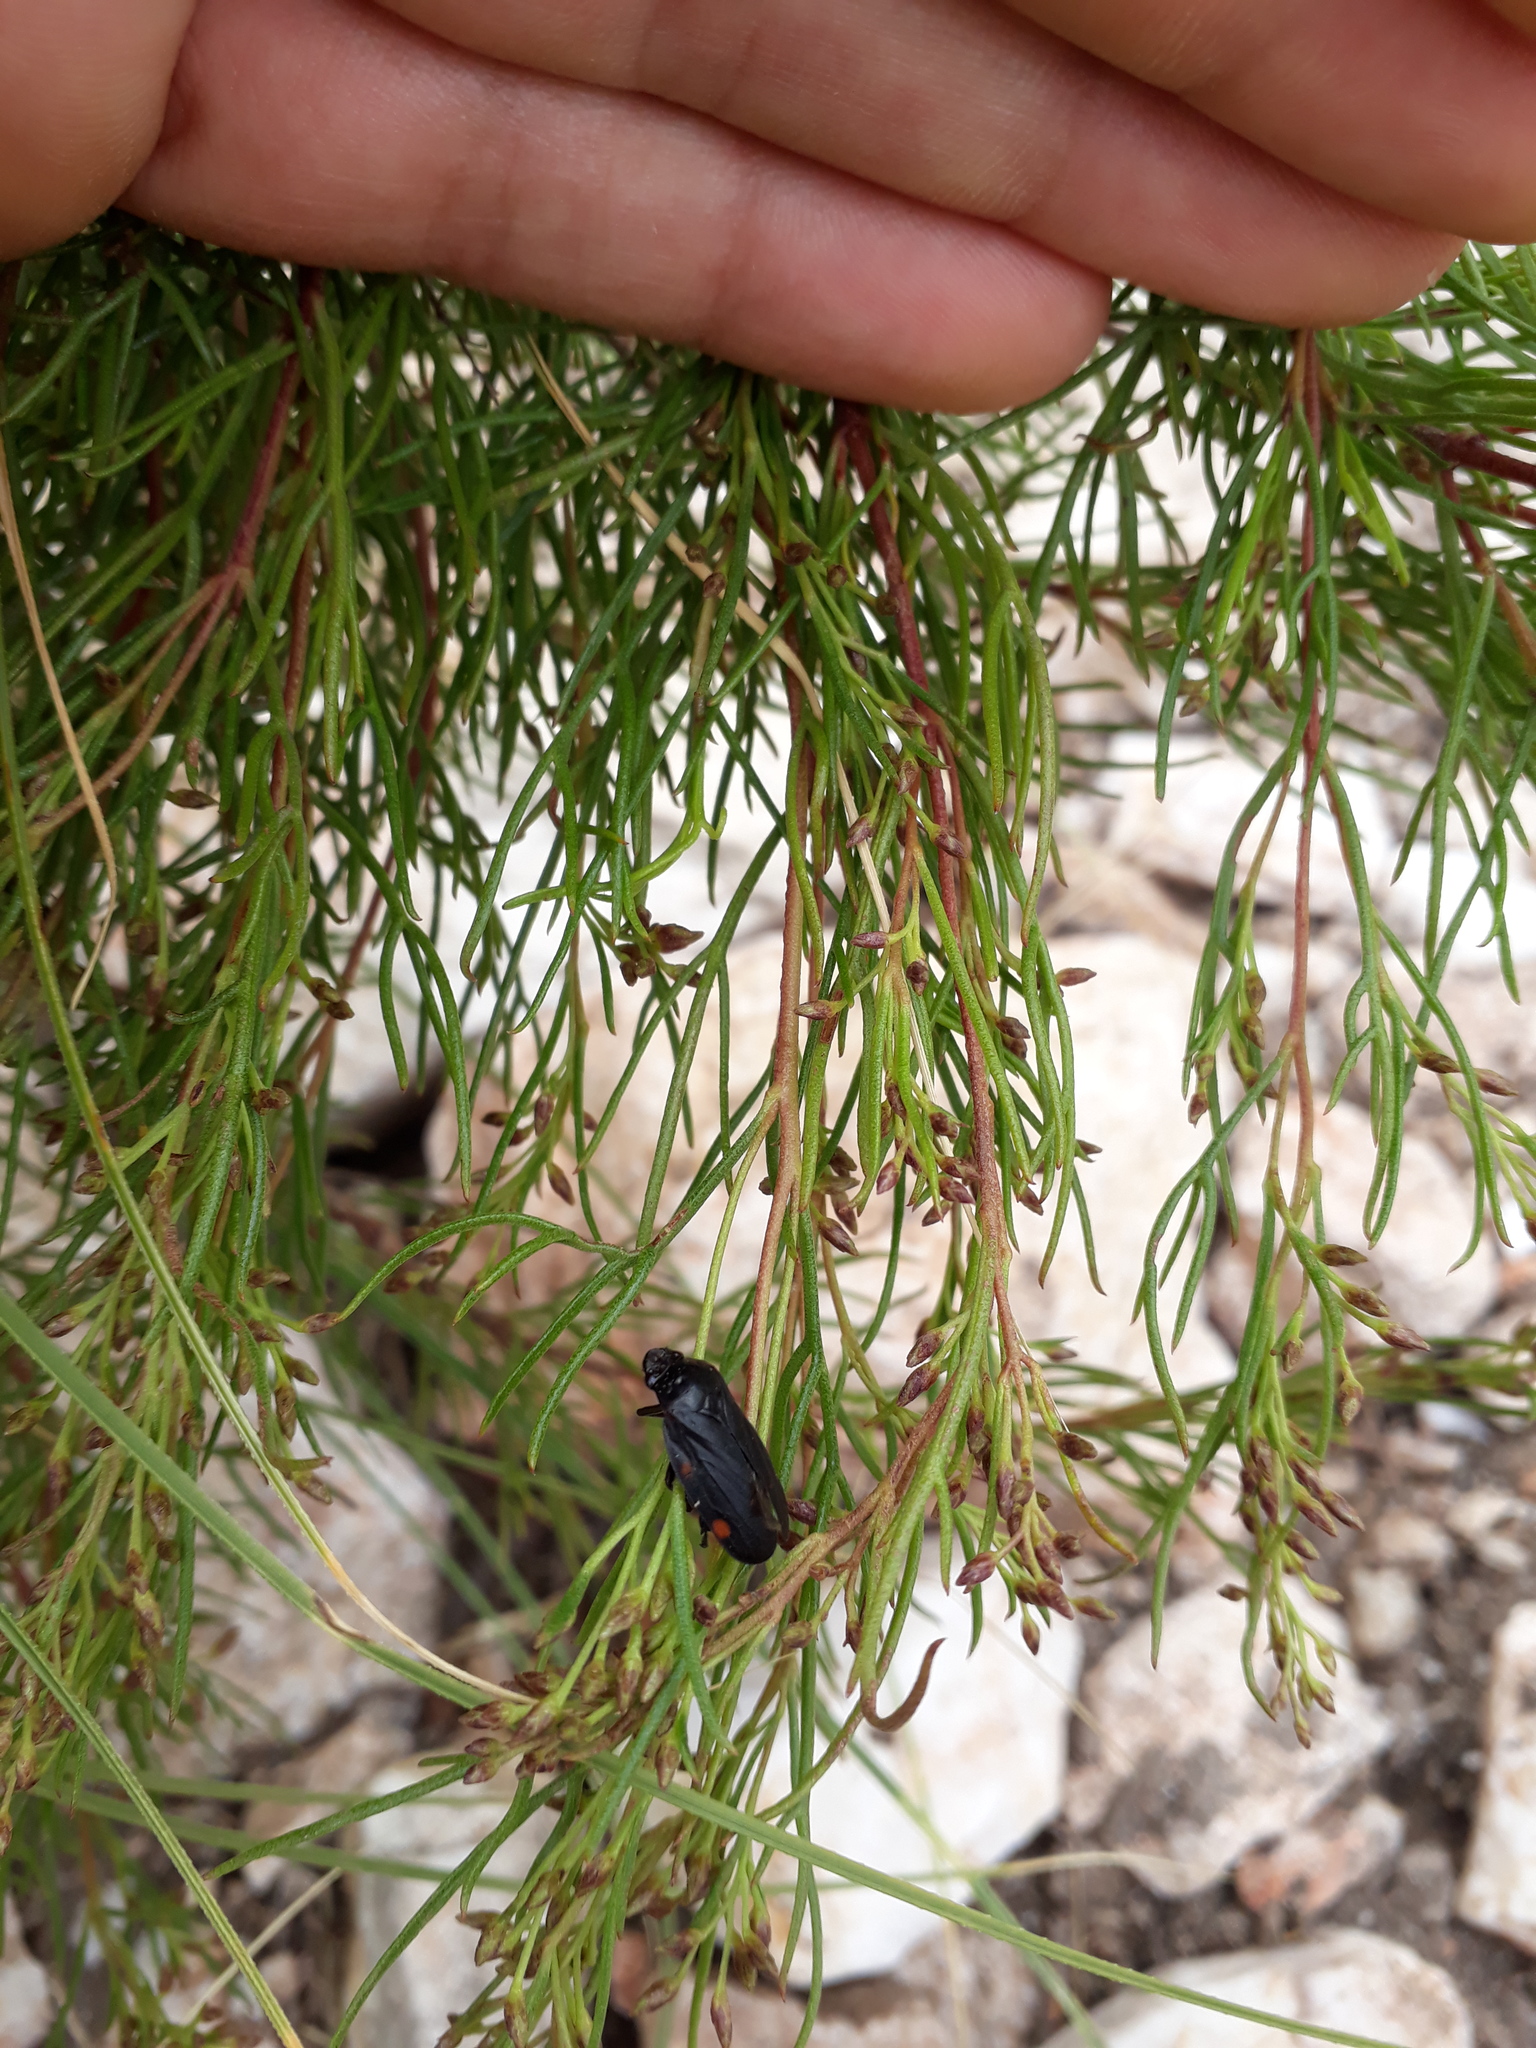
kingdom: Animalia
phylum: Arthropoda
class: Insecta
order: Hemiptera
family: Cercopidae
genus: Kanaima
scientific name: Kanaima fluvialis
